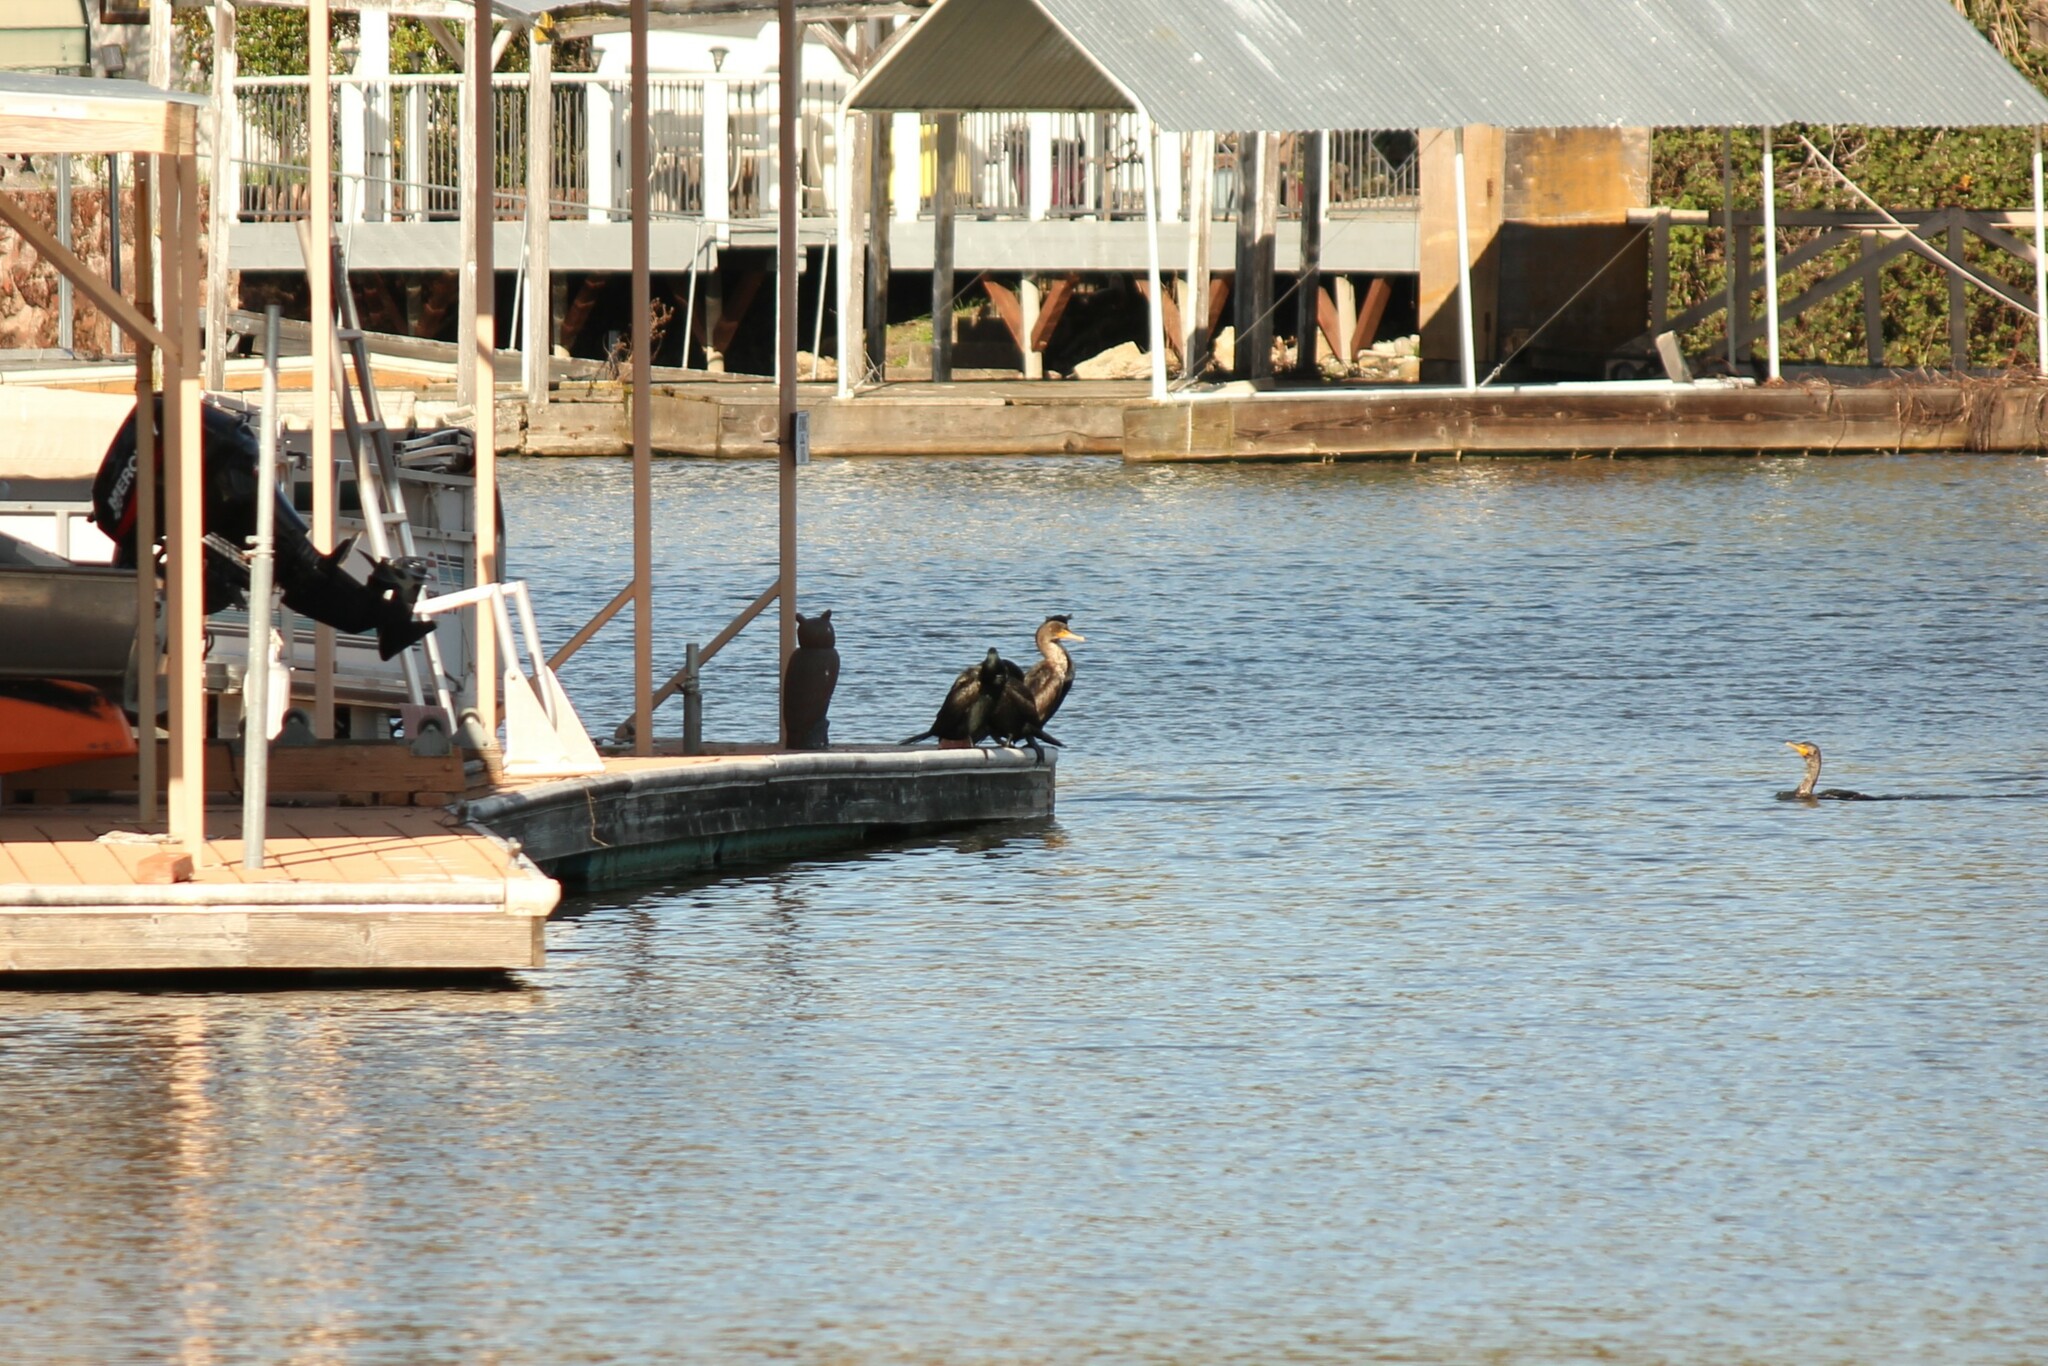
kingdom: Animalia
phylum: Chordata
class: Aves
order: Suliformes
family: Phalacrocoracidae
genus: Phalacrocorax
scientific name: Phalacrocorax auritus
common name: Double-crested cormorant
